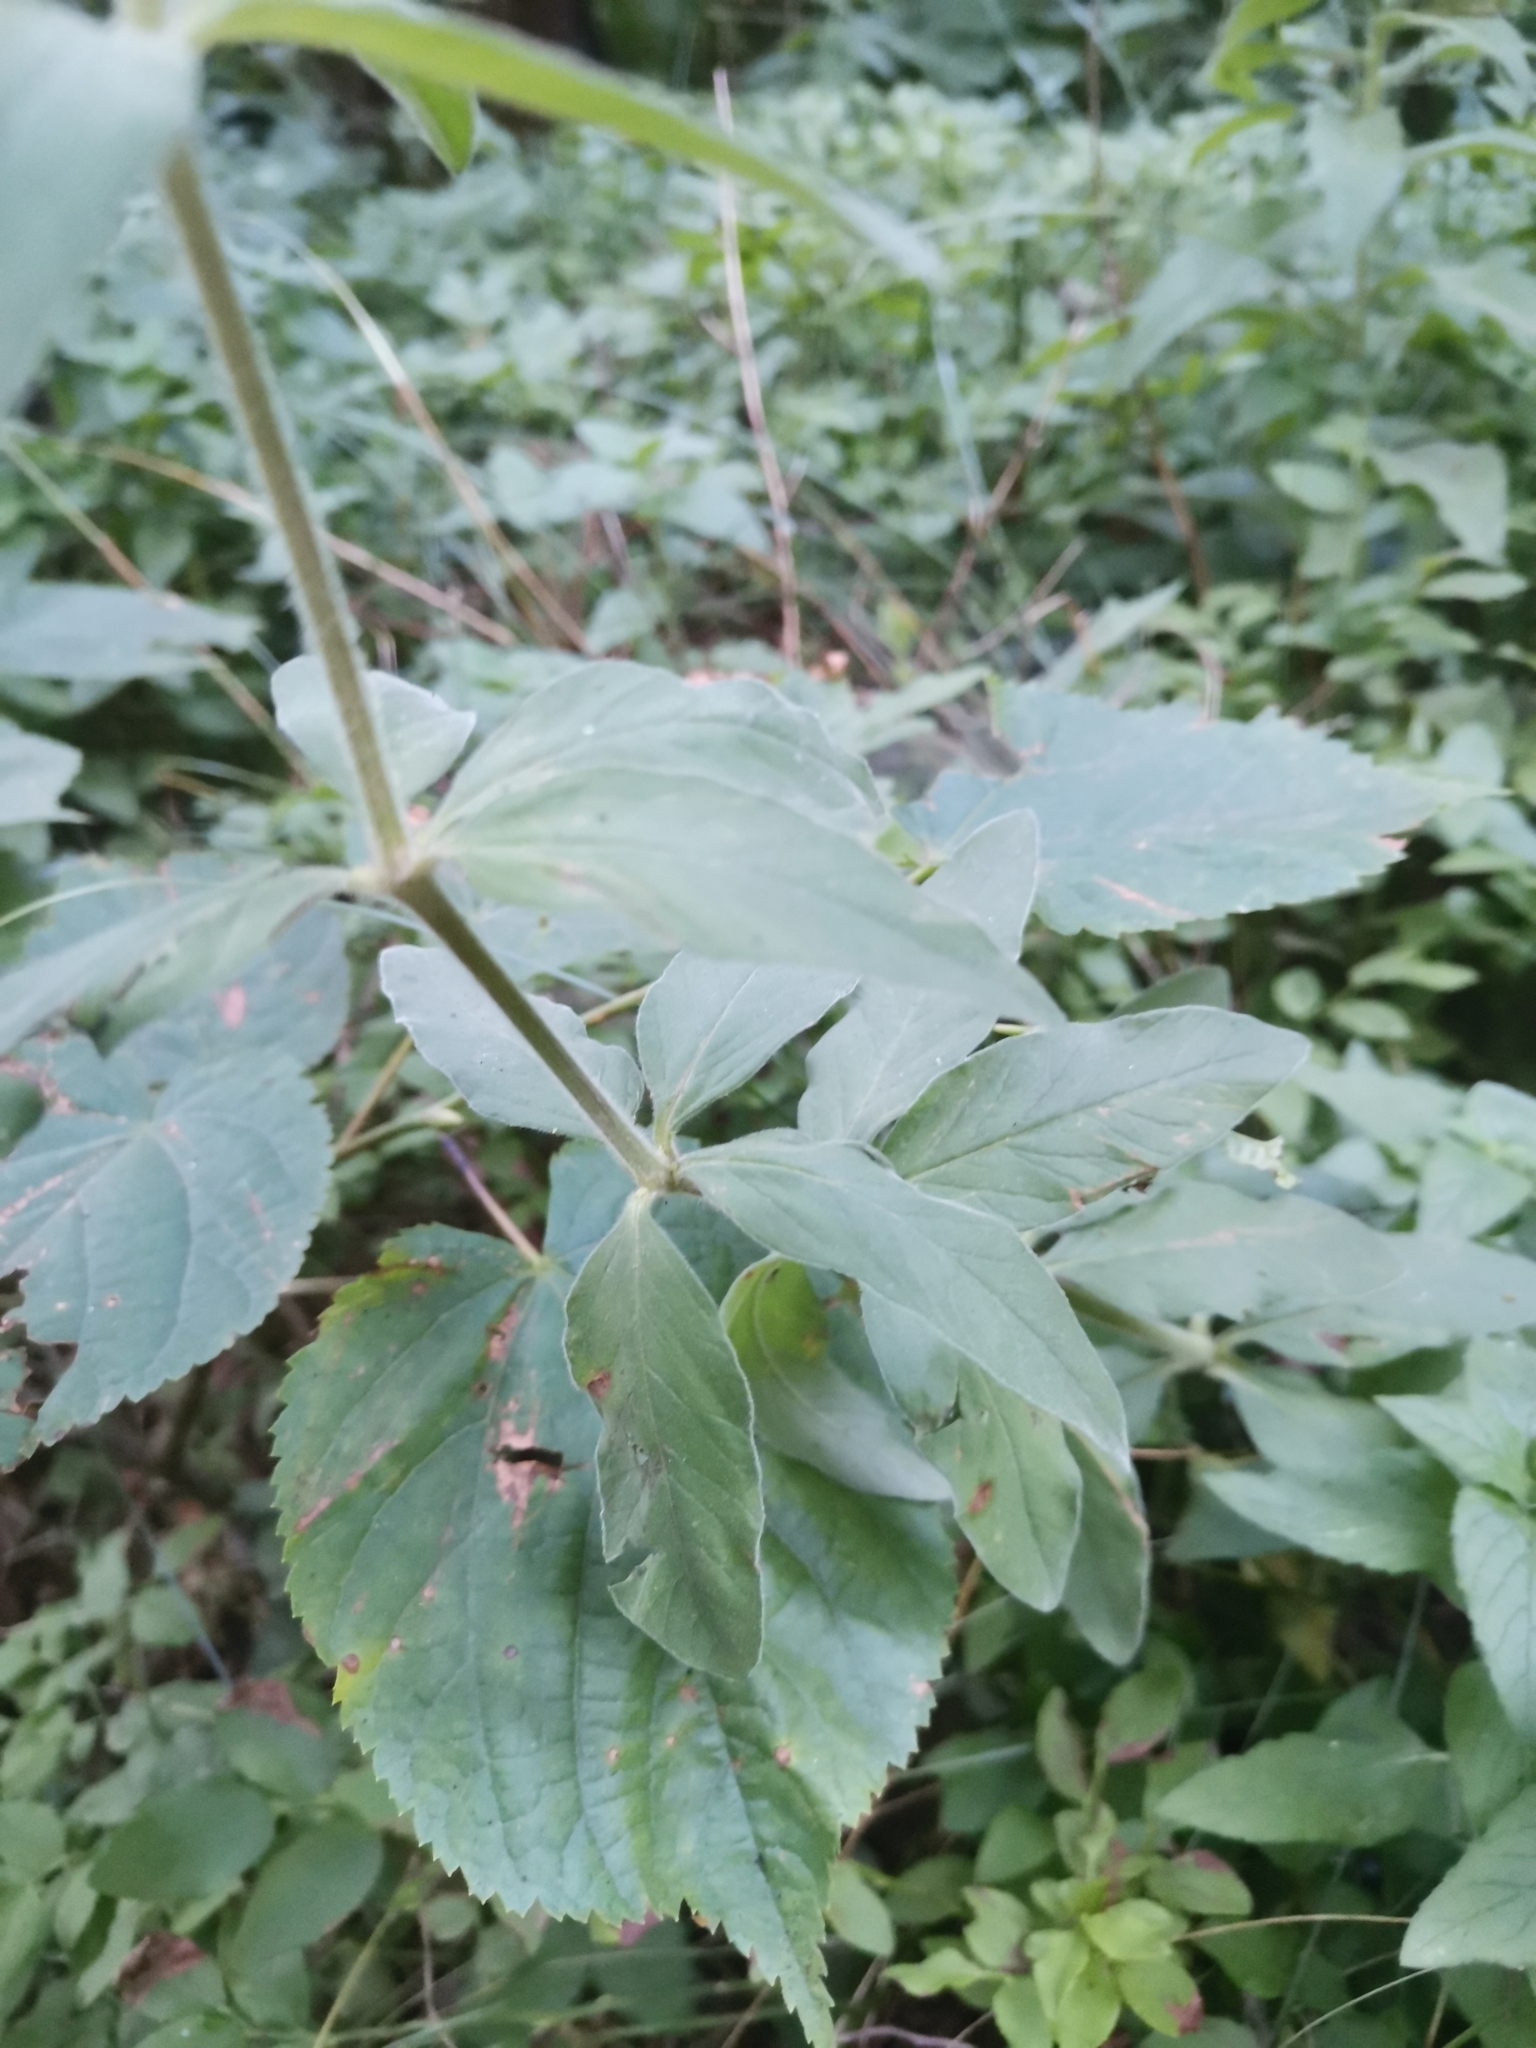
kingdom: Plantae
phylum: Tracheophyta
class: Magnoliopsida
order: Ericales
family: Primulaceae
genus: Lysimachia
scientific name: Lysimachia punctata
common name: Dotted loosestrife
